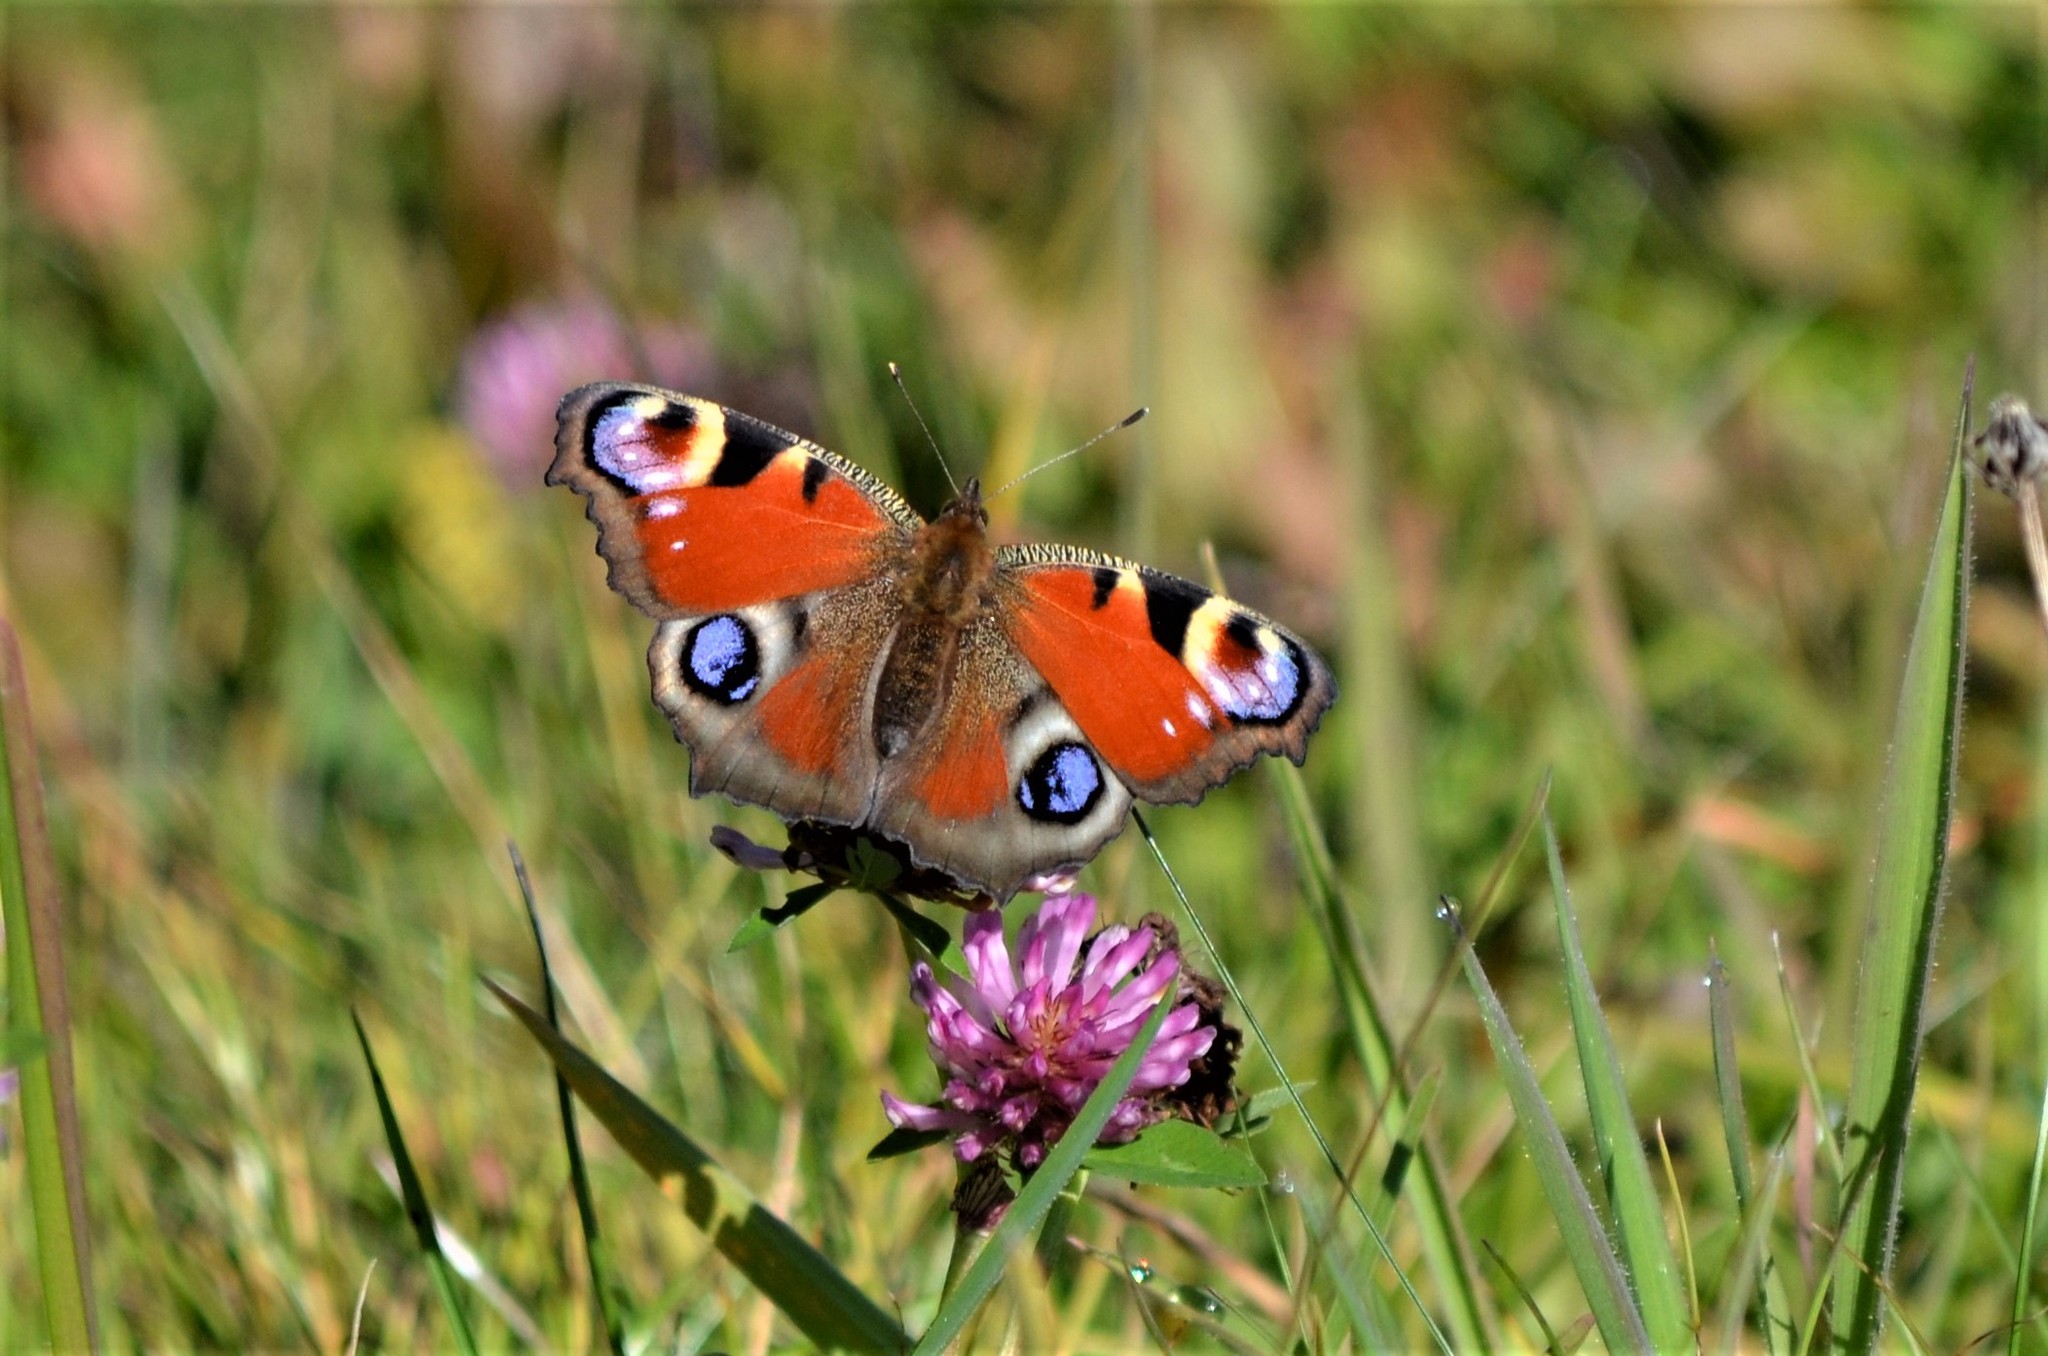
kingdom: Animalia
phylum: Arthropoda
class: Insecta
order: Lepidoptera
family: Nymphalidae
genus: Aglais
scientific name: Aglais io
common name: Peacock
